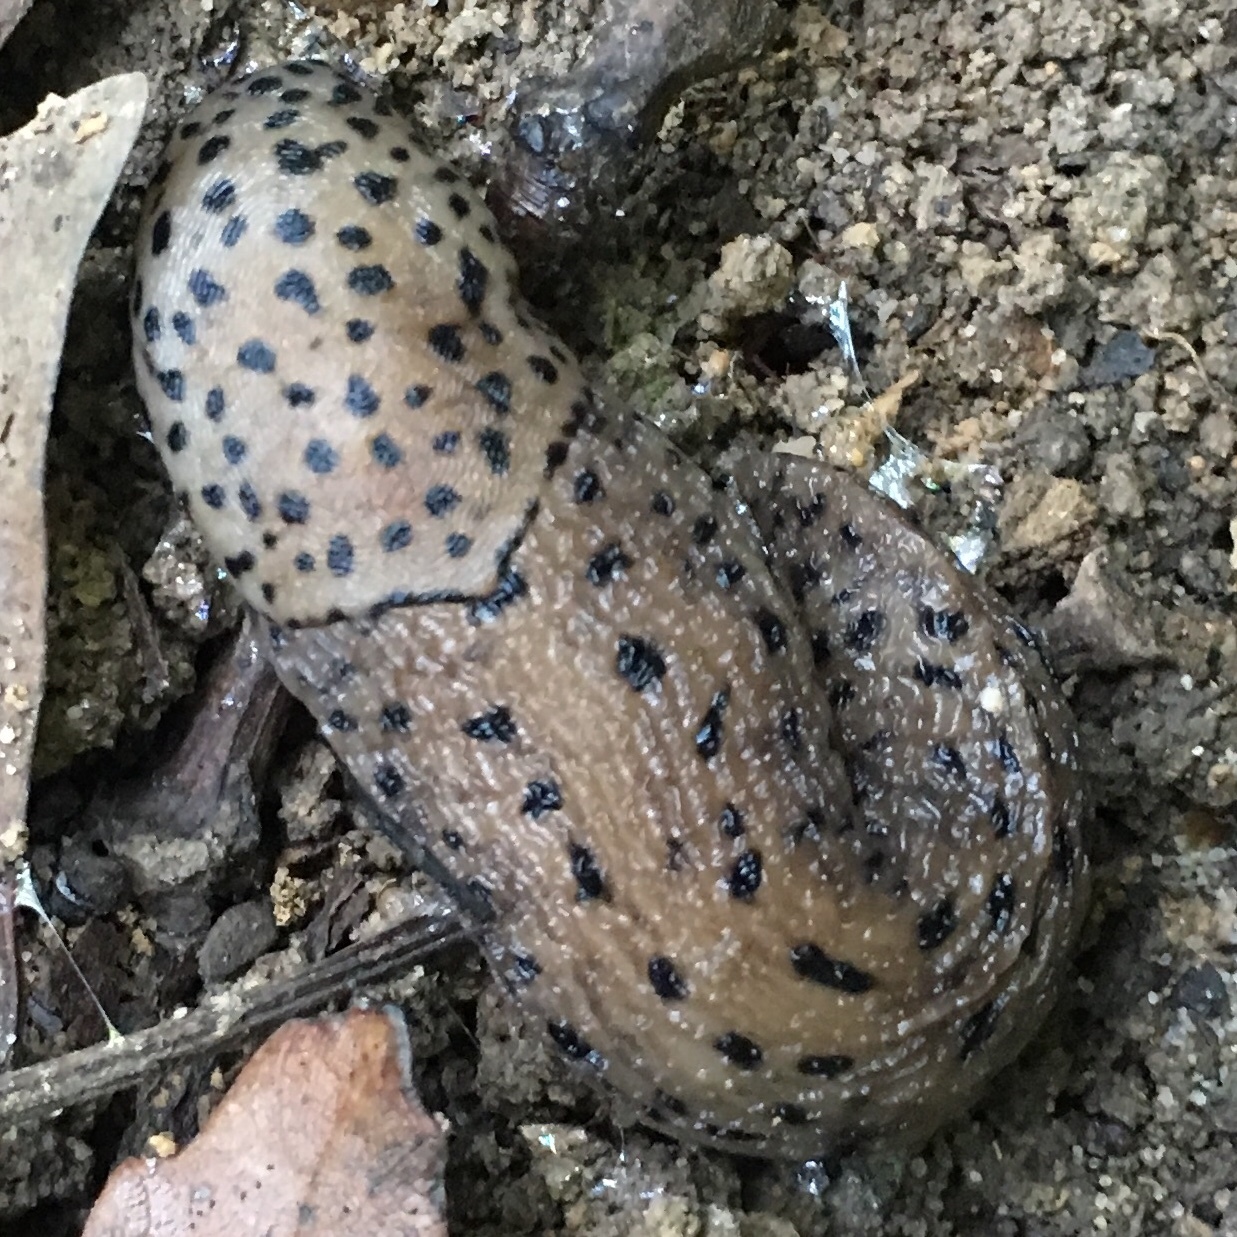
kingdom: Animalia
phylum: Mollusca
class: Gastropoda
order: Stylommatophora
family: Limacidae
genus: Limax
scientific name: Limax maximus
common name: Great grey slug
